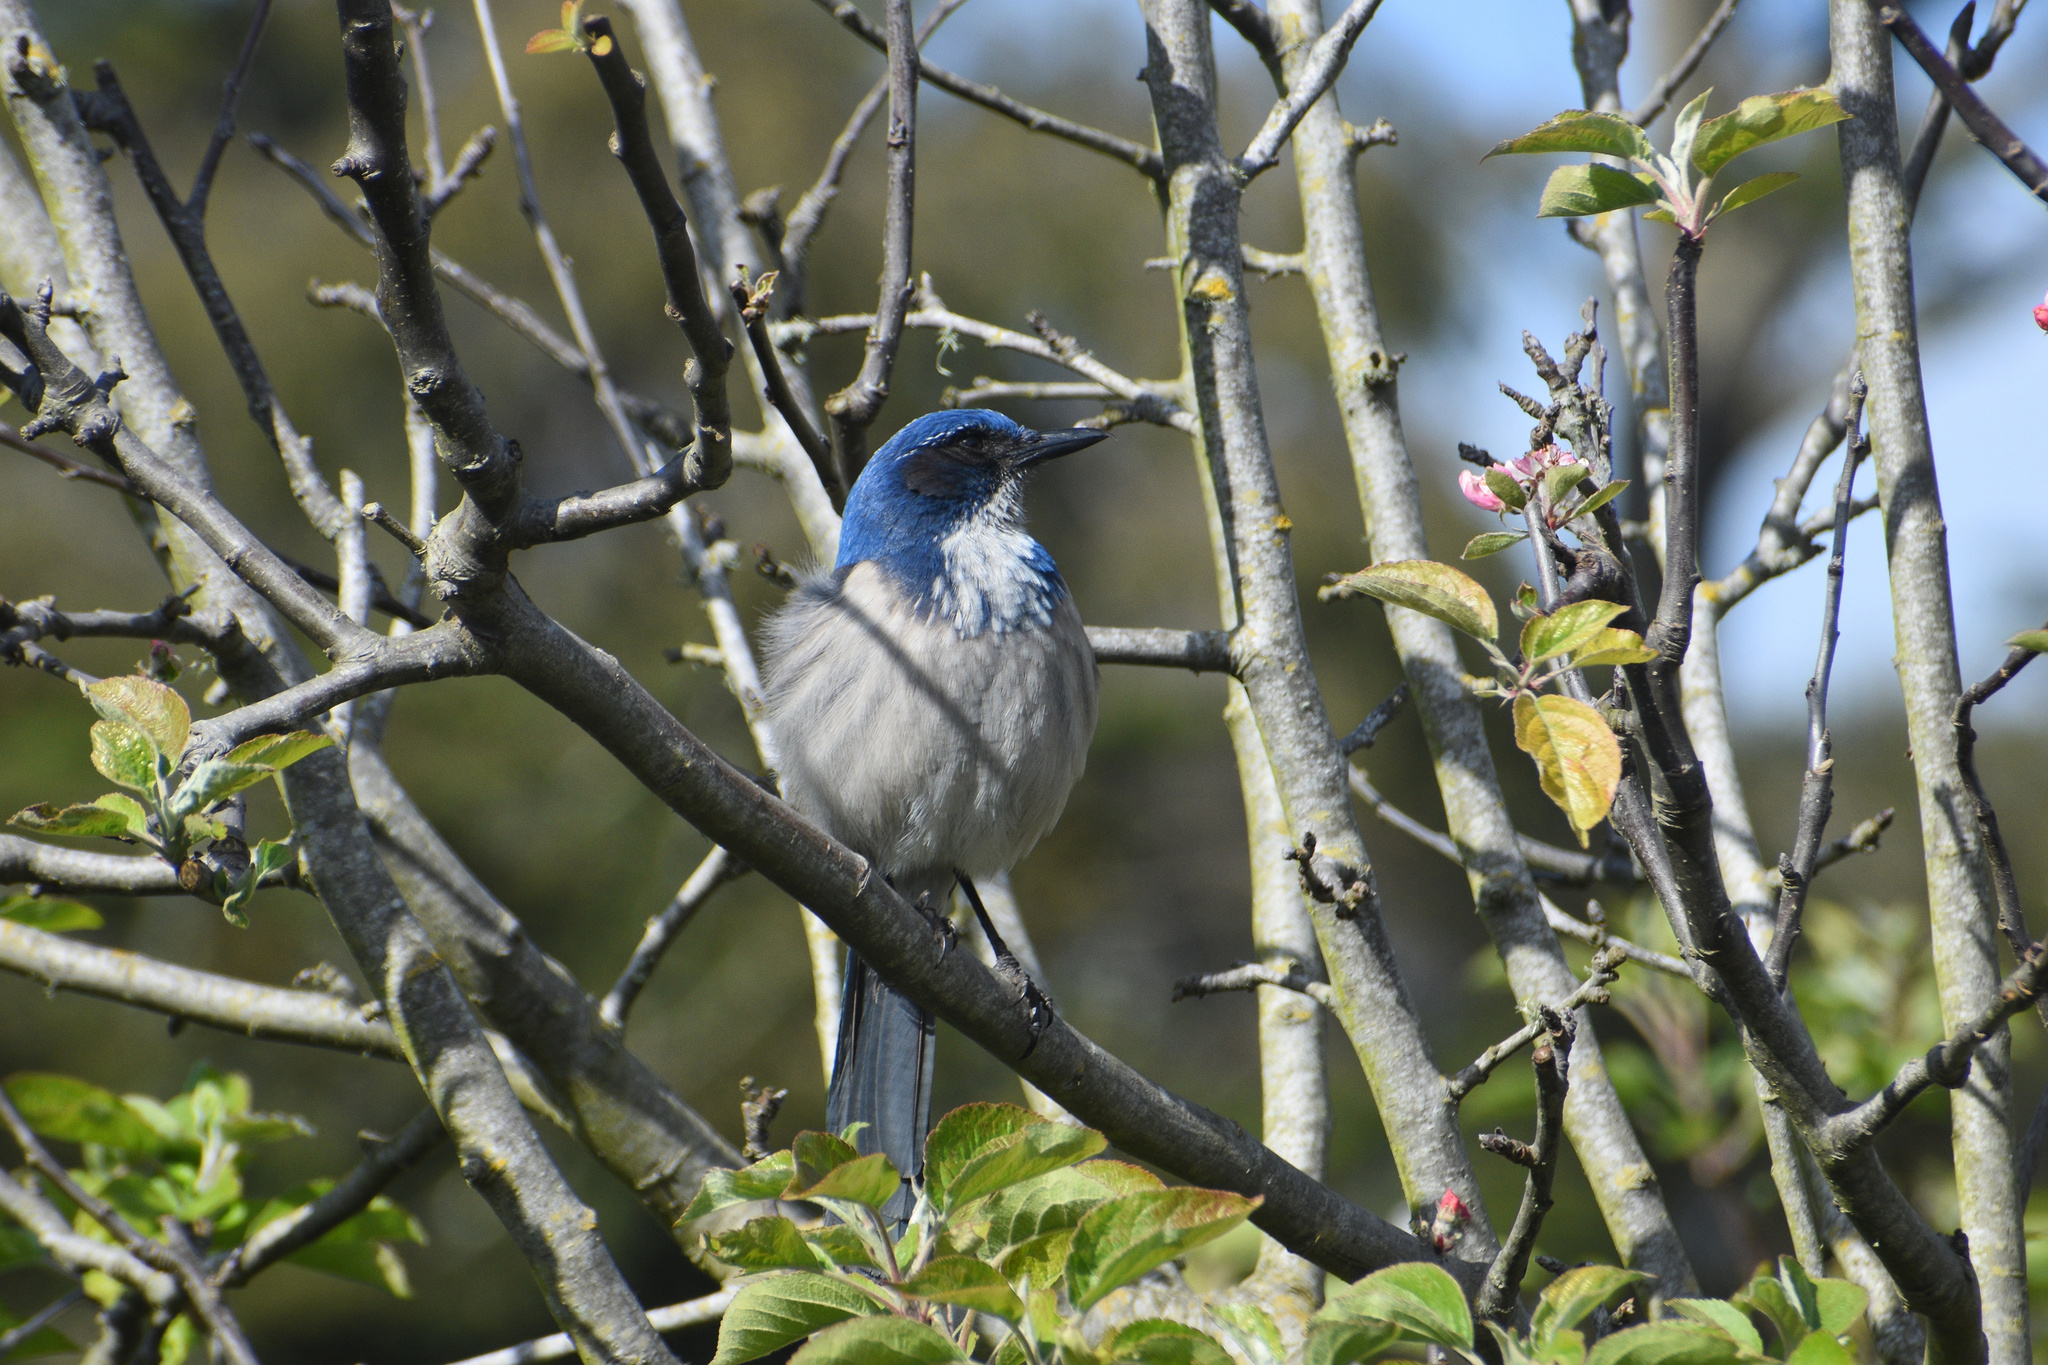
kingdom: Animalia
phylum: Chordata
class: Aves
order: Passeriformes
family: Corvidae
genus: Aphelocoma
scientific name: Aphelocoma californica
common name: California scrub-jay
